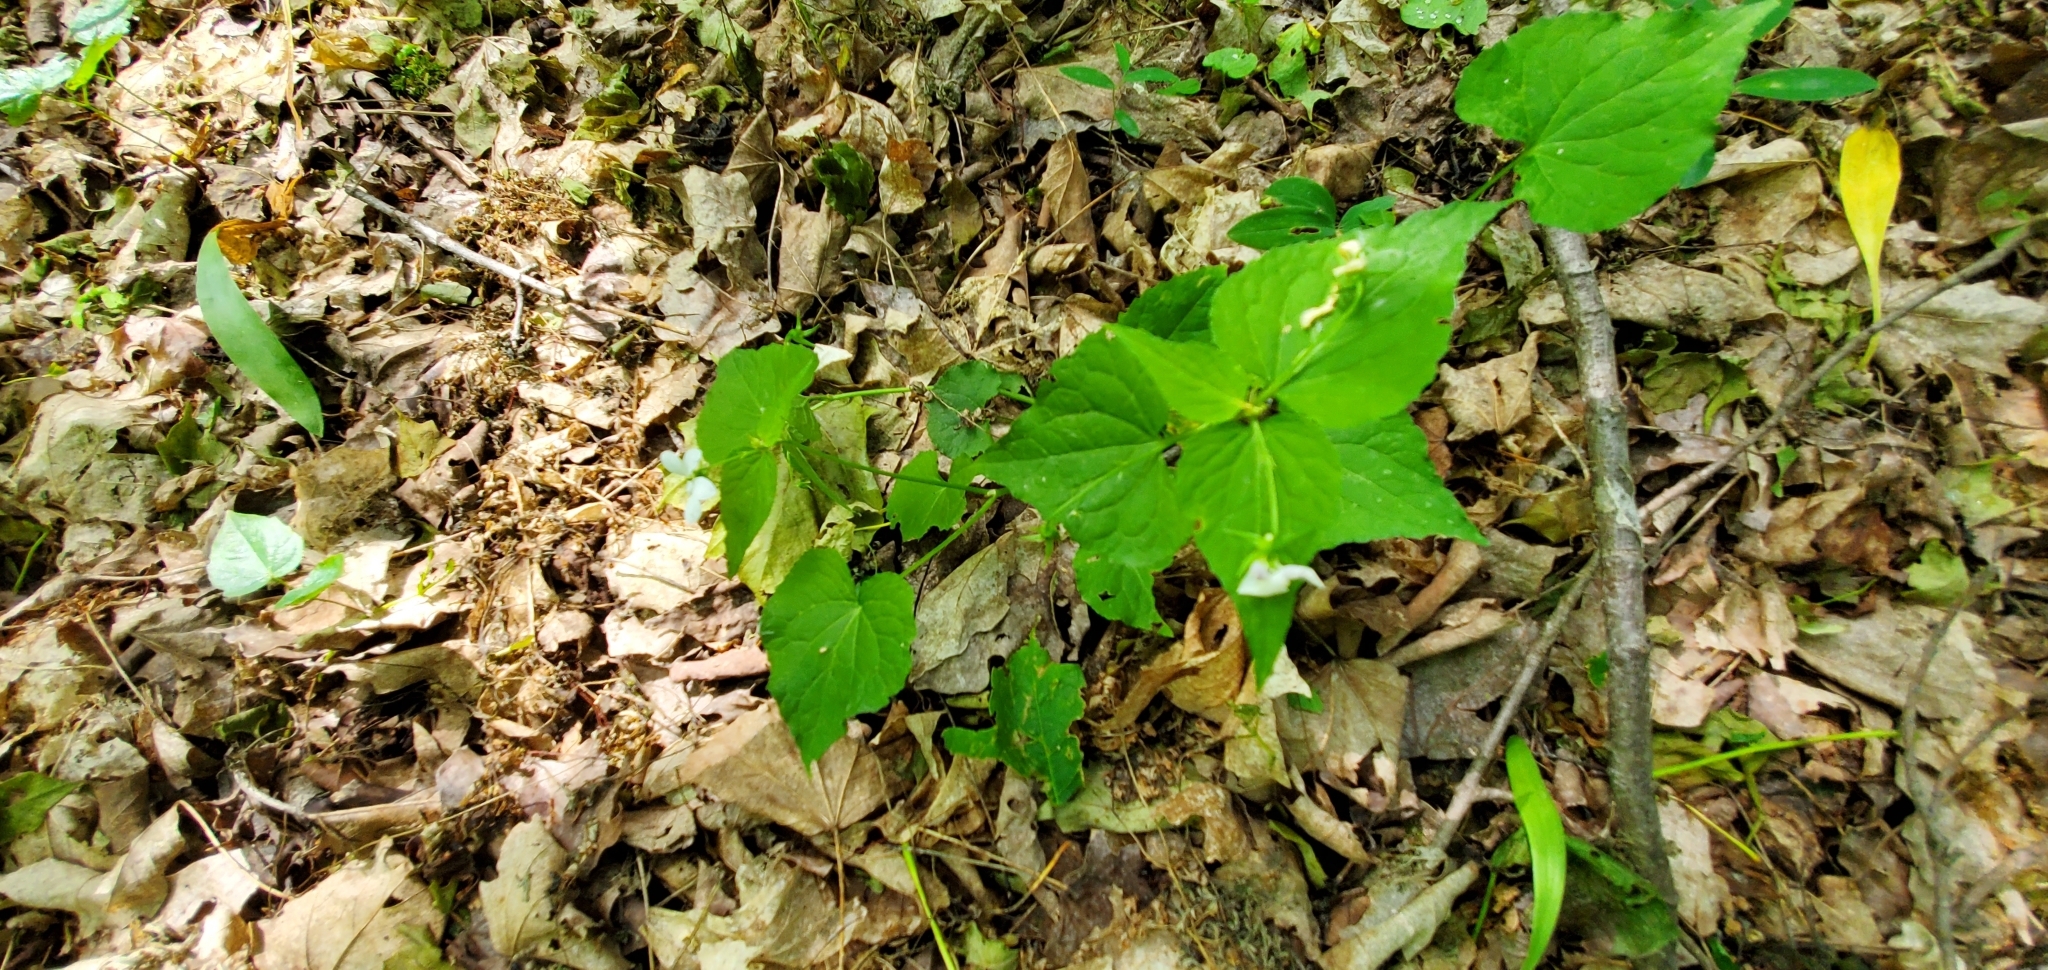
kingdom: Plantae
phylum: Tracheophyta
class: Magnoliopsida
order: Malpighiales
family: Violaceae
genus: Viola
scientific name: Viola canadensis
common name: Canada violet
